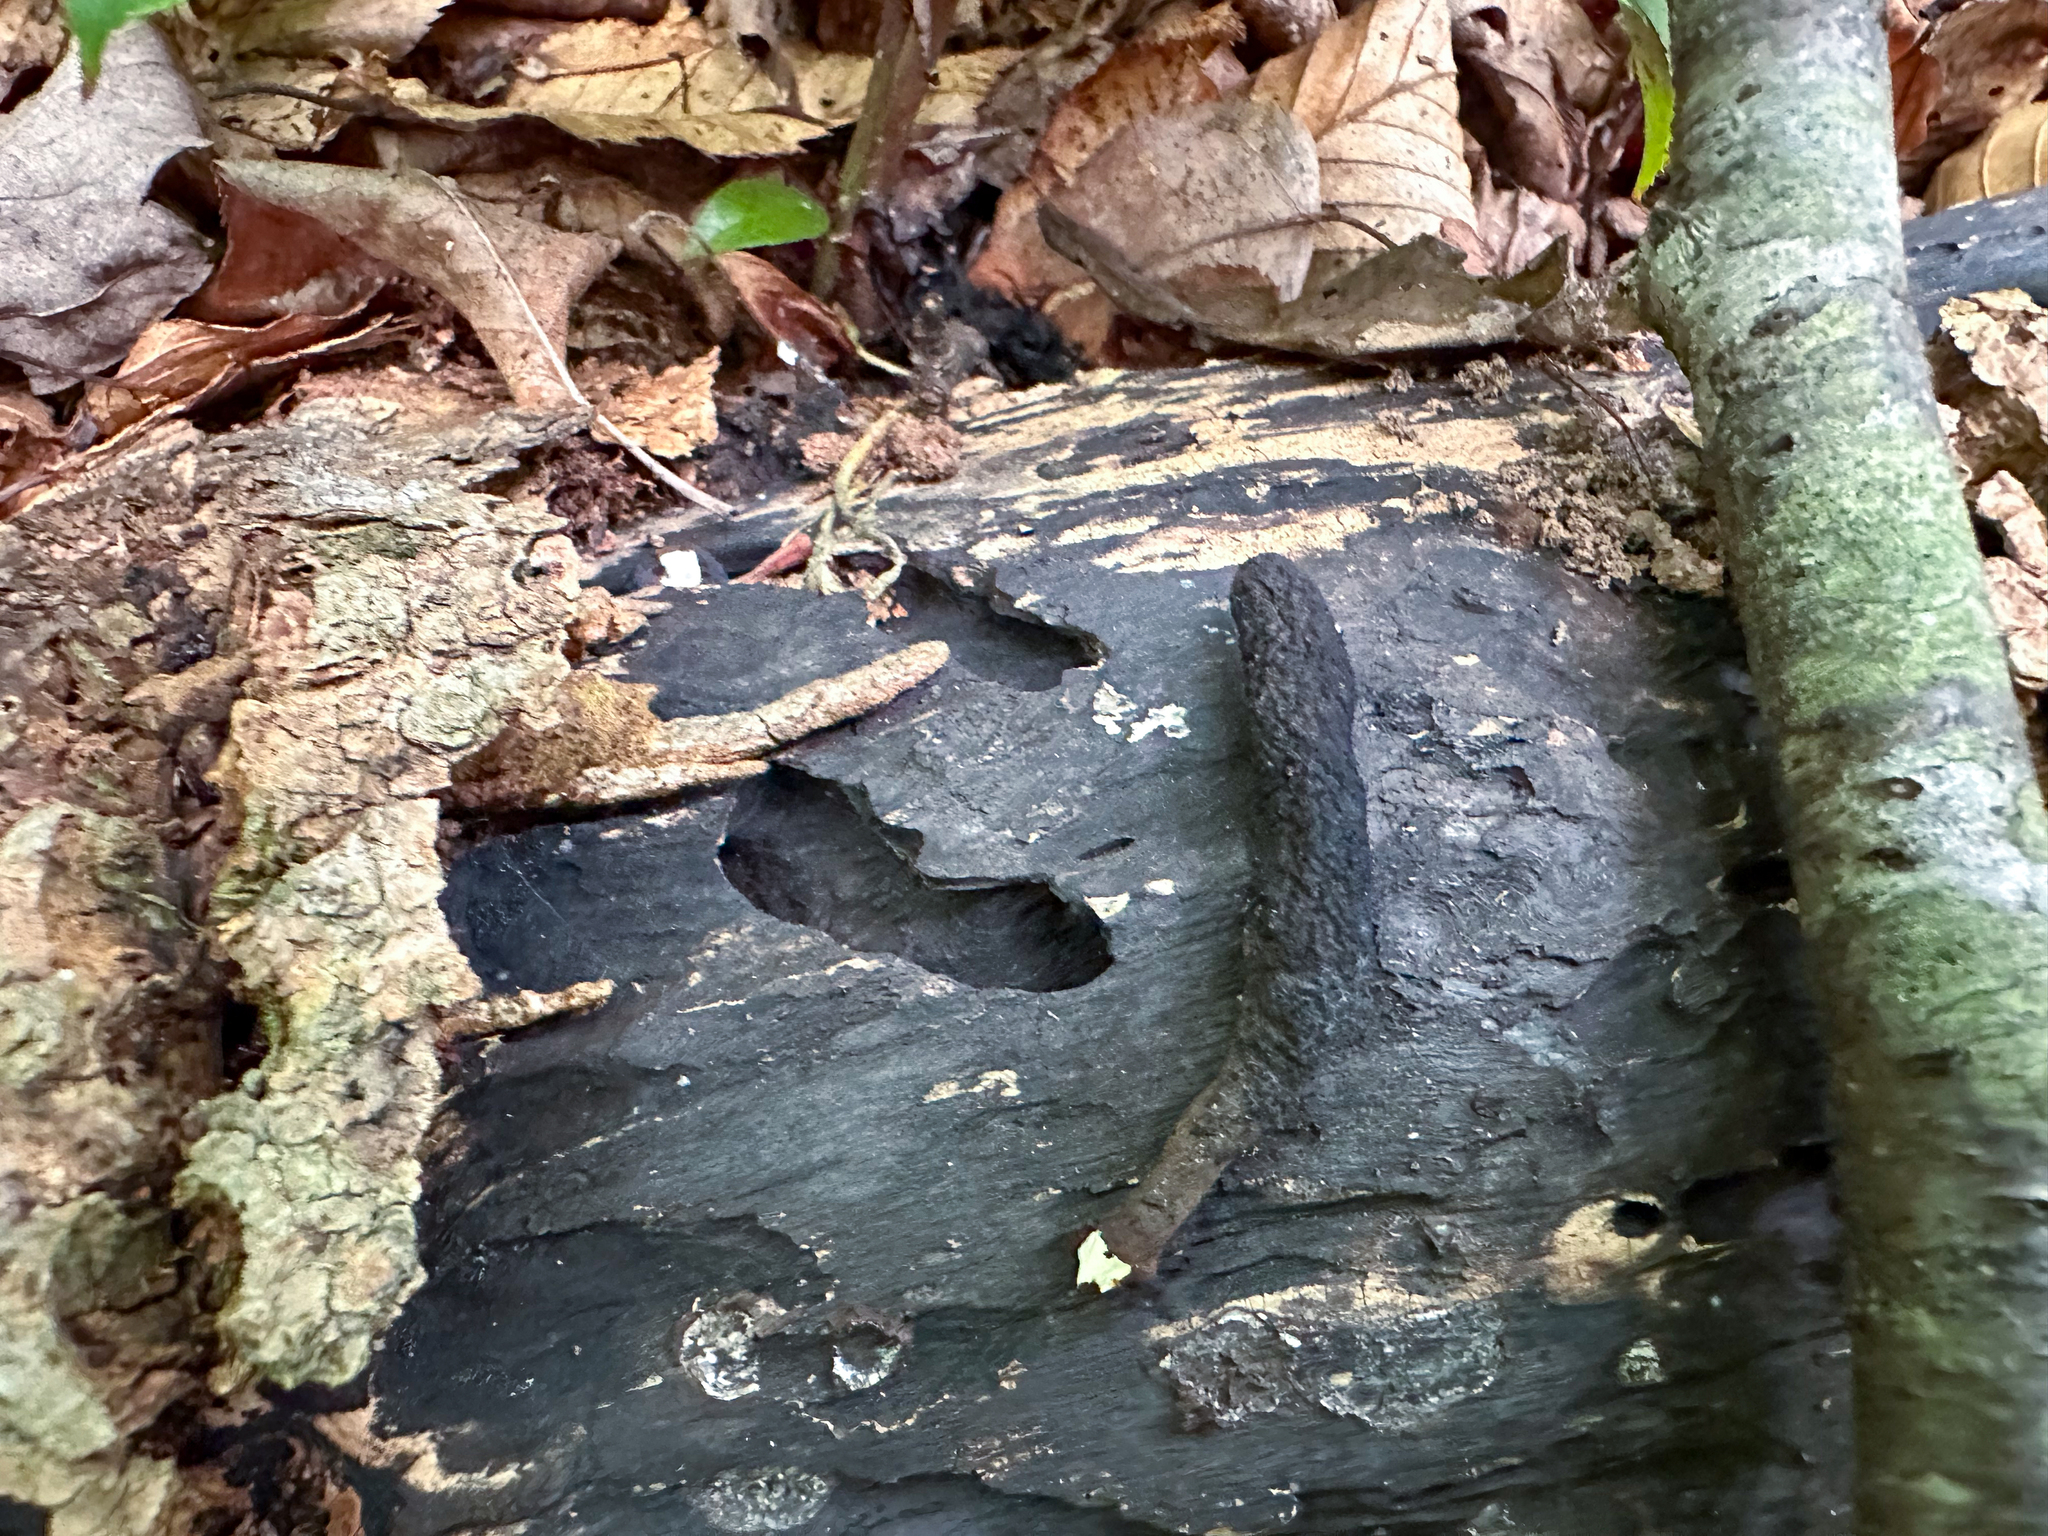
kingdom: Fungi
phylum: Ascomycota
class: Sordariomycetes
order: Xylariales
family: Xylariaceae
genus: Xylaria
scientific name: Xylaria longipes
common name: Dead moll's fingers
